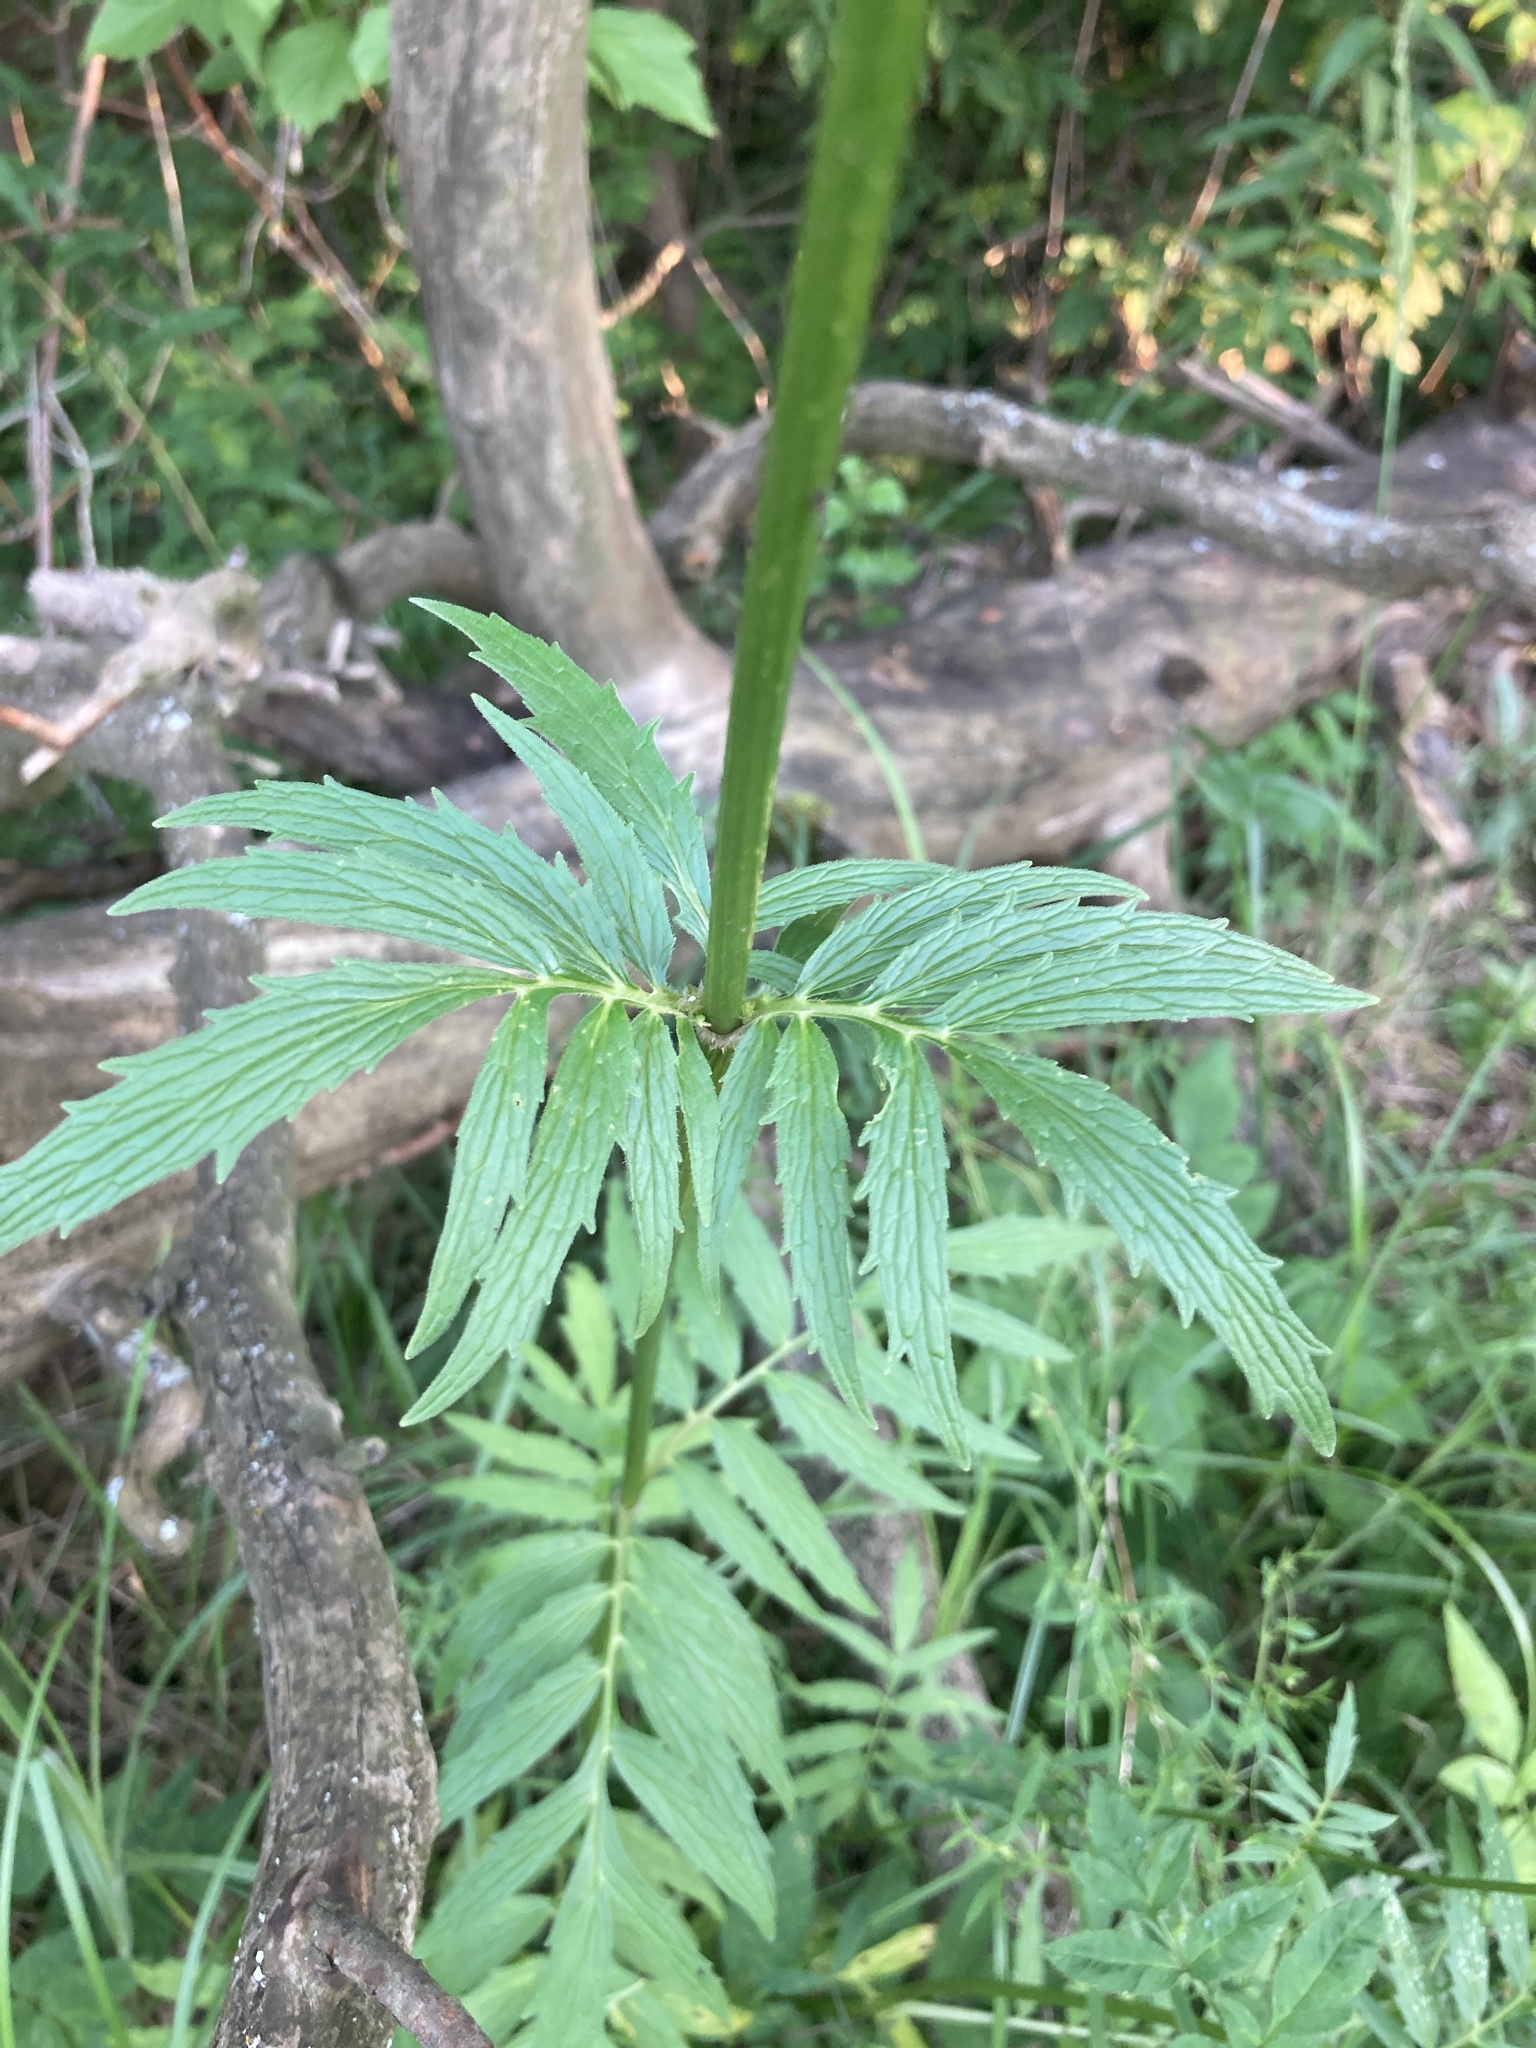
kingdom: Plantae
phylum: Tracheophyta
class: Magnoliopsida
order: Dipsacales
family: Caprifoliaceae
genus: Valeriana
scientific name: Valeriana officinalis
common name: Common valerian
